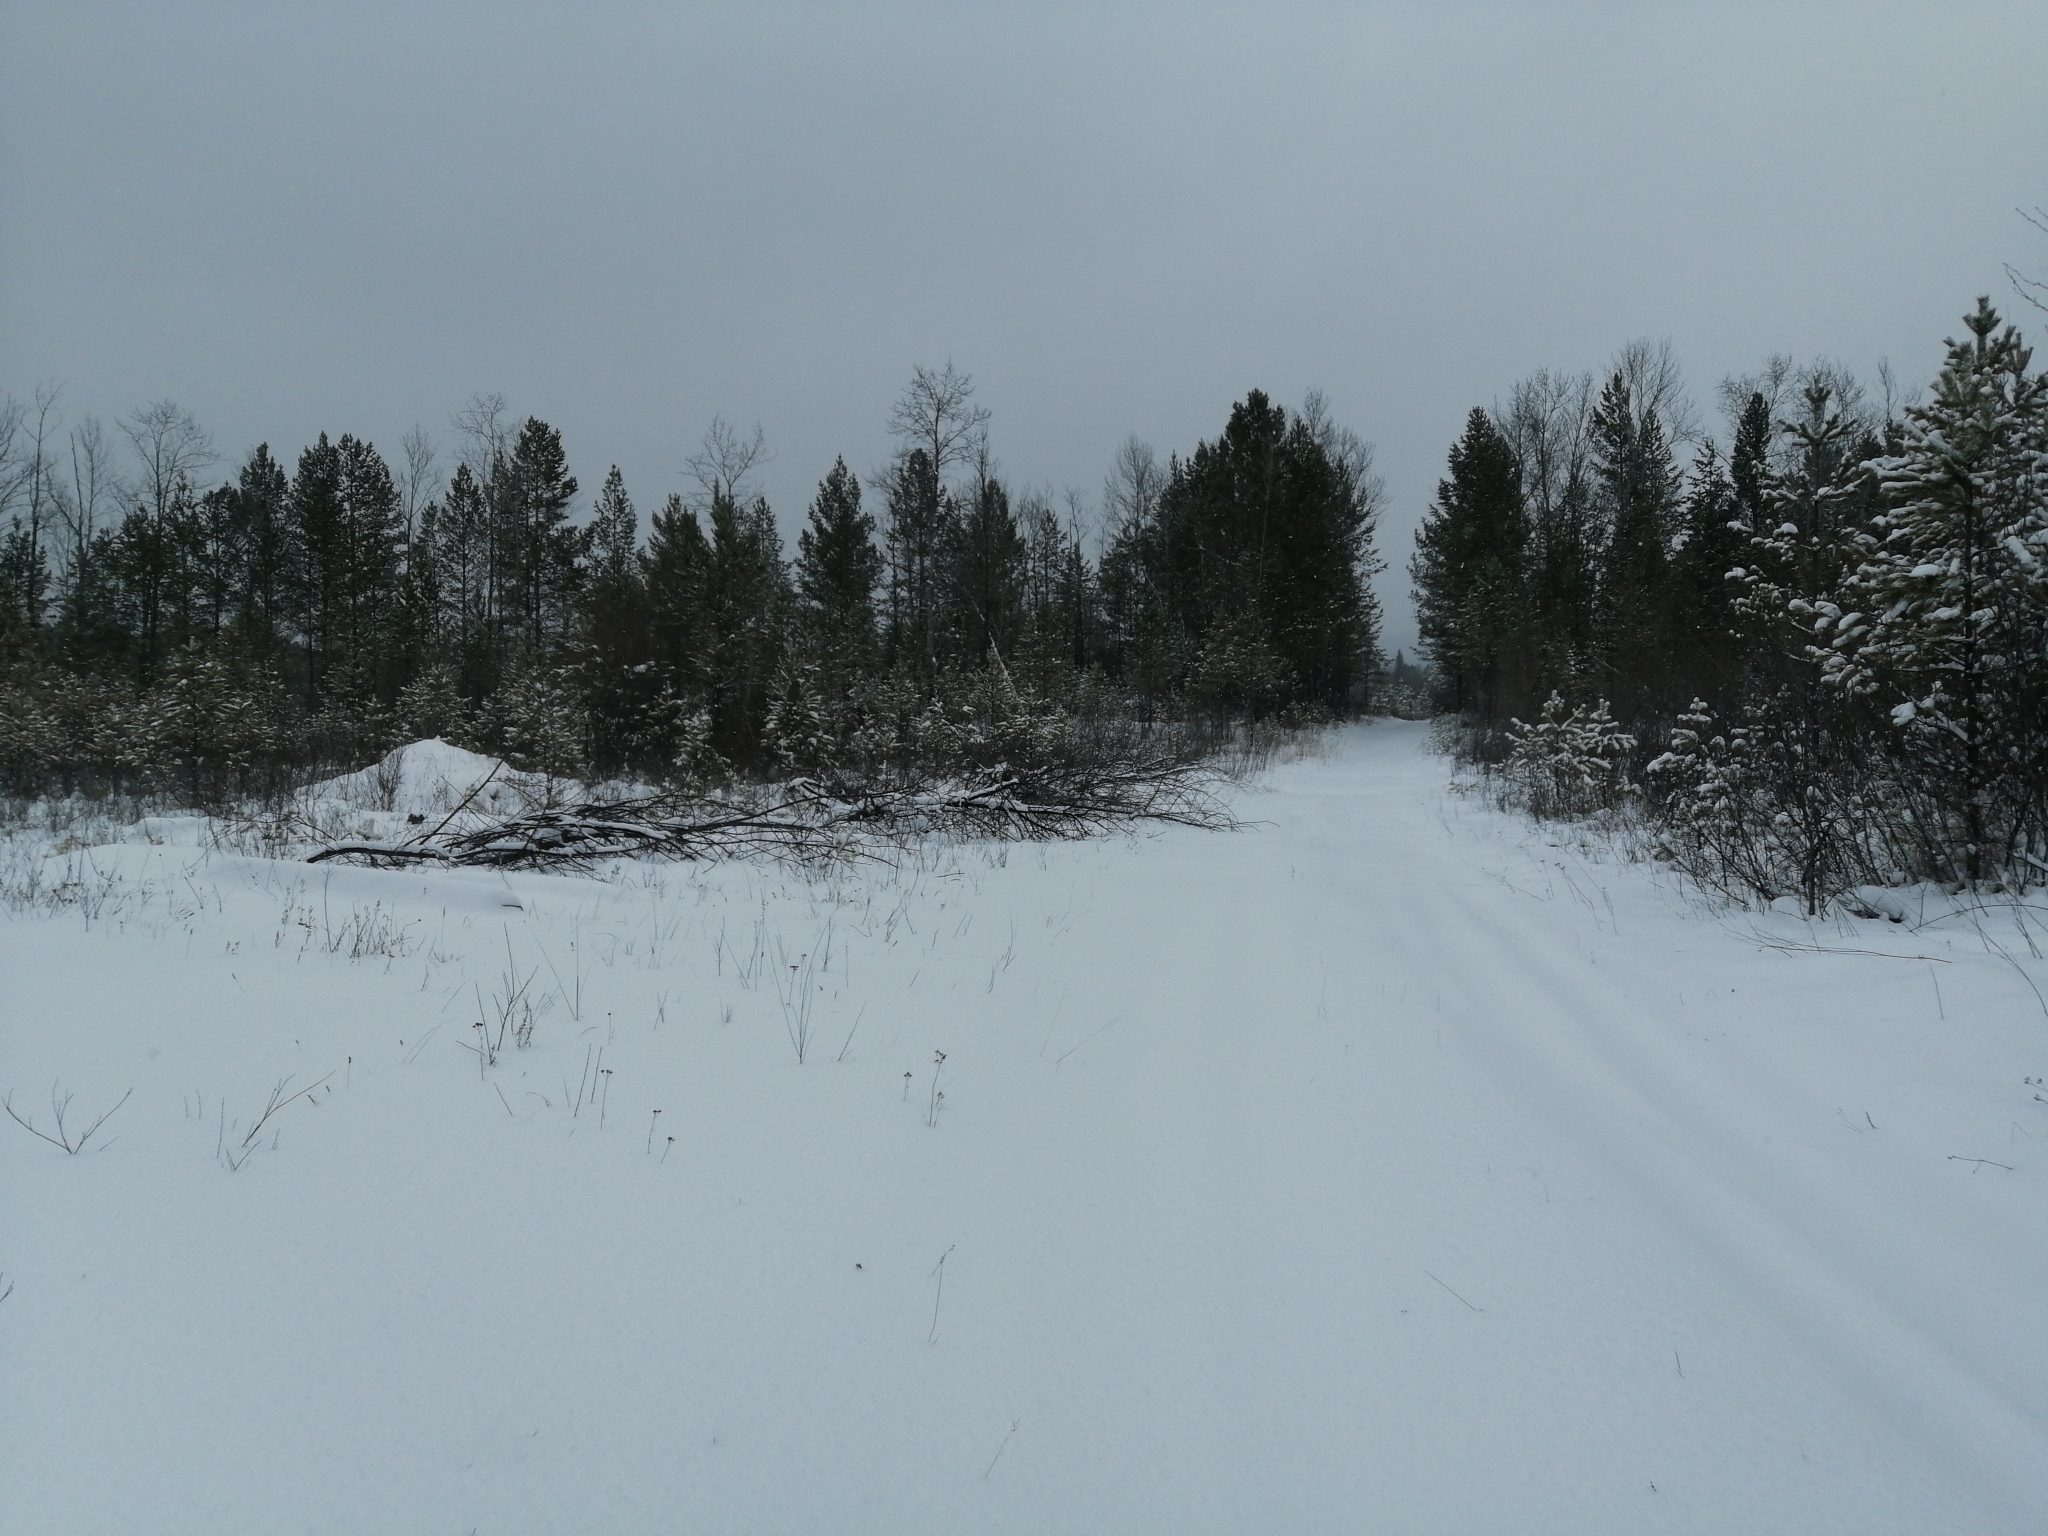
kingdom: Plantae
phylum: Tracheophyta
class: Pinopsida
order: Pinales
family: Pinaceae
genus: Pinus
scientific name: Pinus sylvestris
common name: Scots pine
